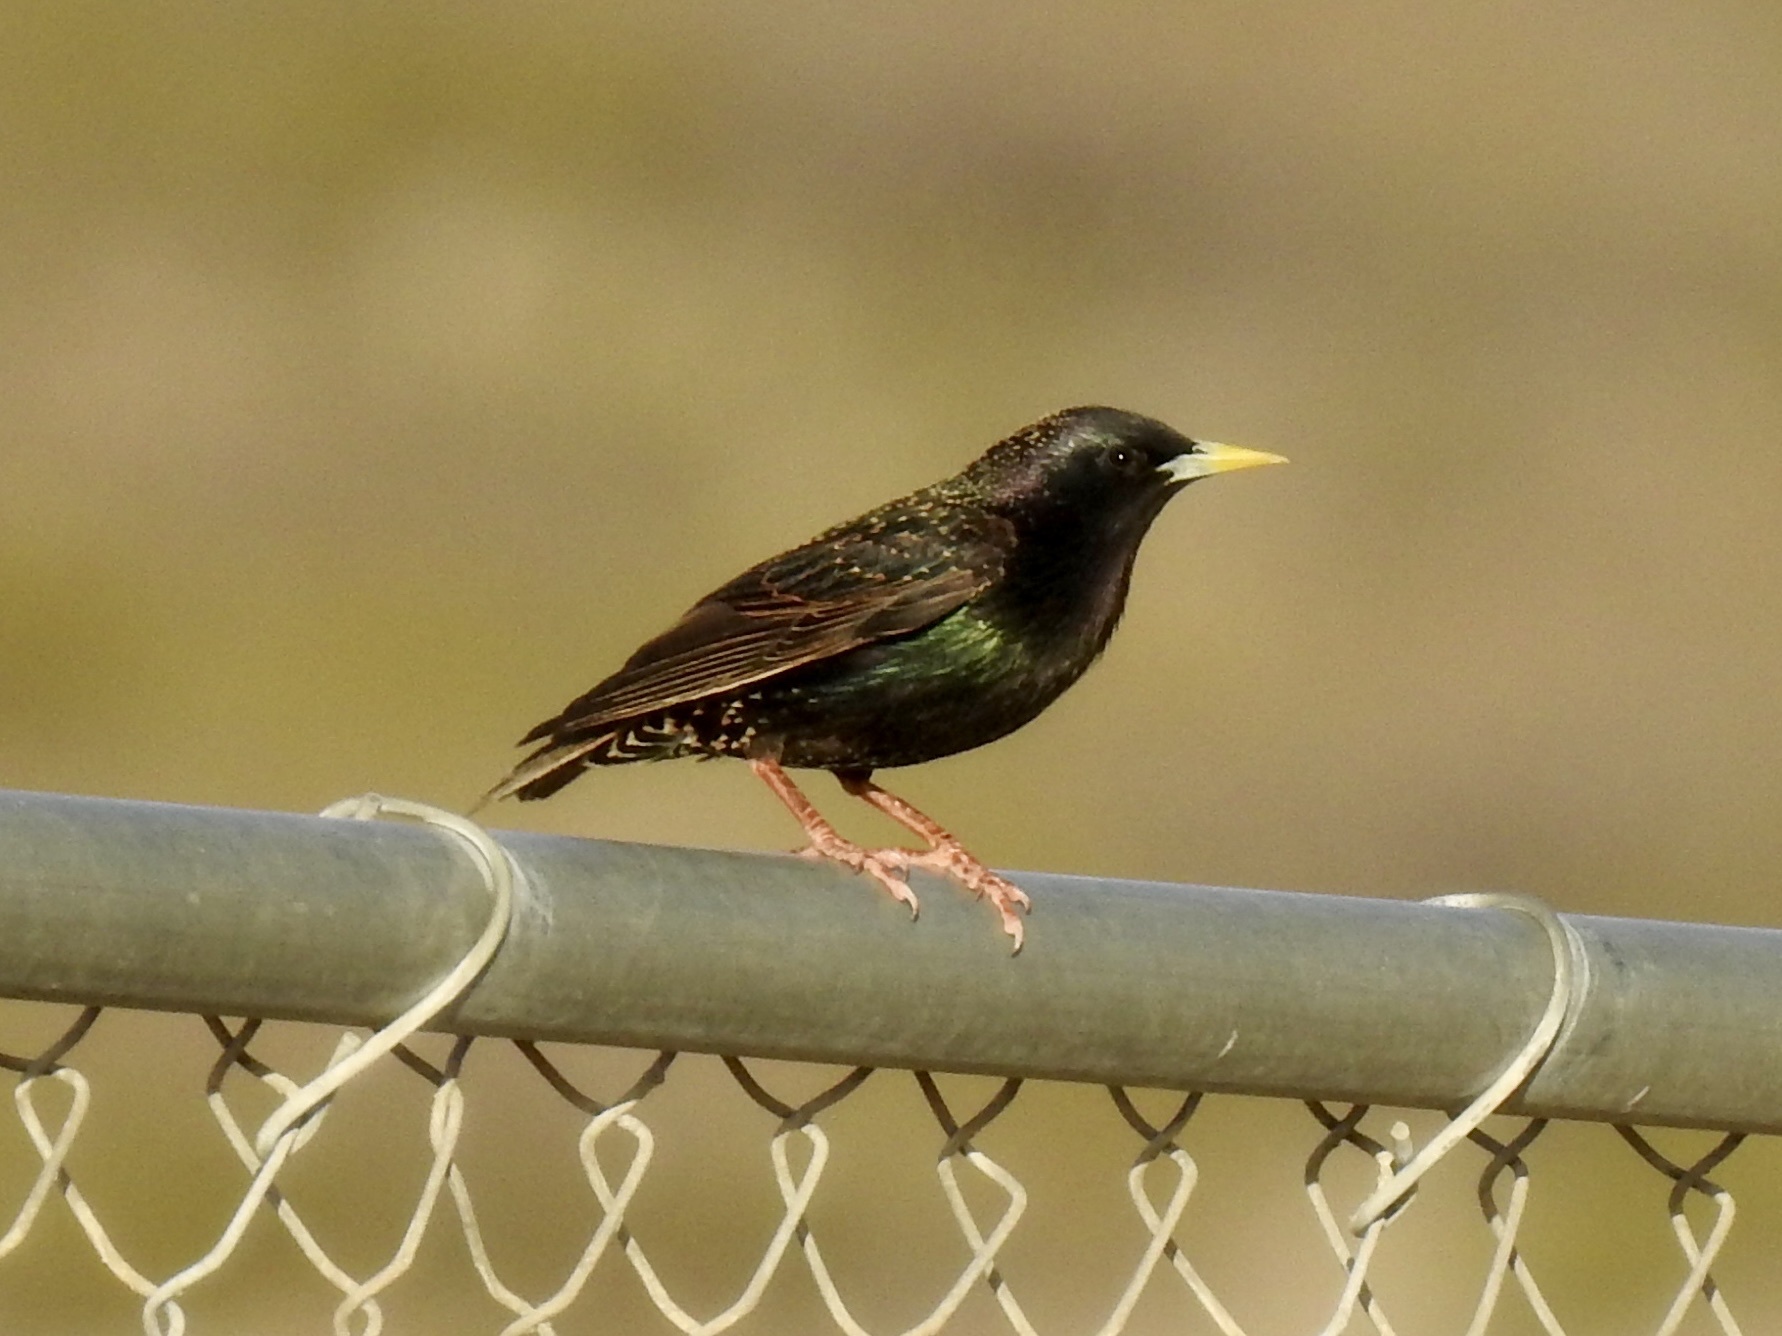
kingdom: Animalia
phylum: Chordata
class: Aves
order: Passeriformes
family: Sturnidae
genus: Sturnus
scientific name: Sturnus vulgaris
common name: Common starling
